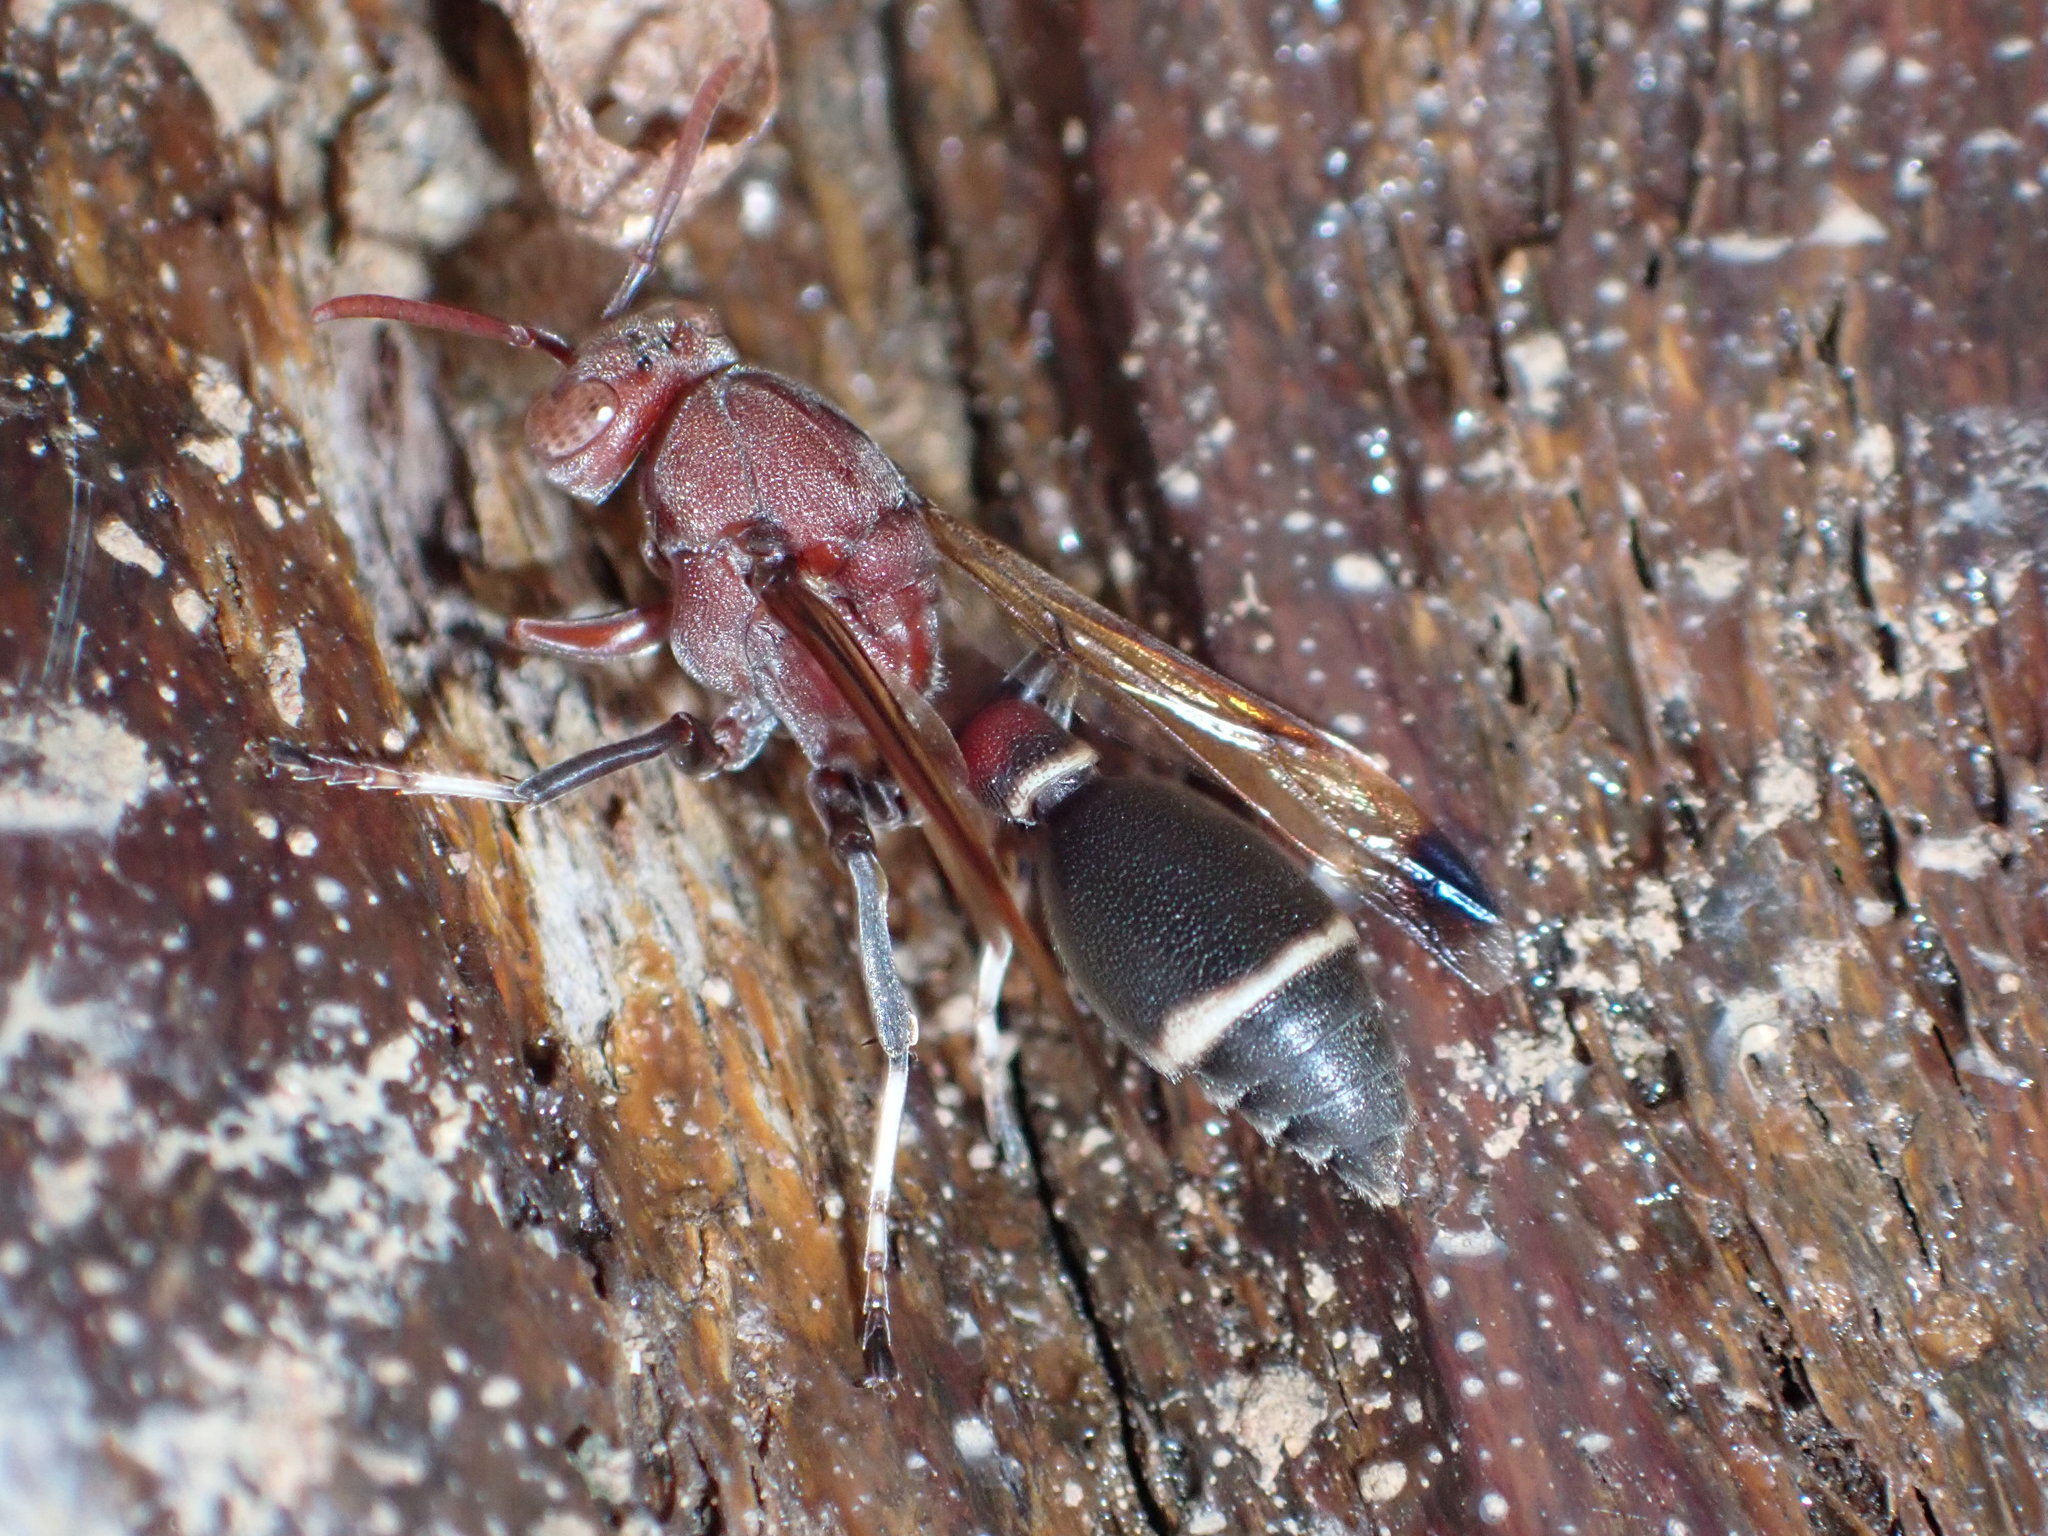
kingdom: Animalia
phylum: Arthropoda
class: Insecta
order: Hymenoptera
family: Vespidae
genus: Ropalidia
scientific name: Ropalidia magnanima
